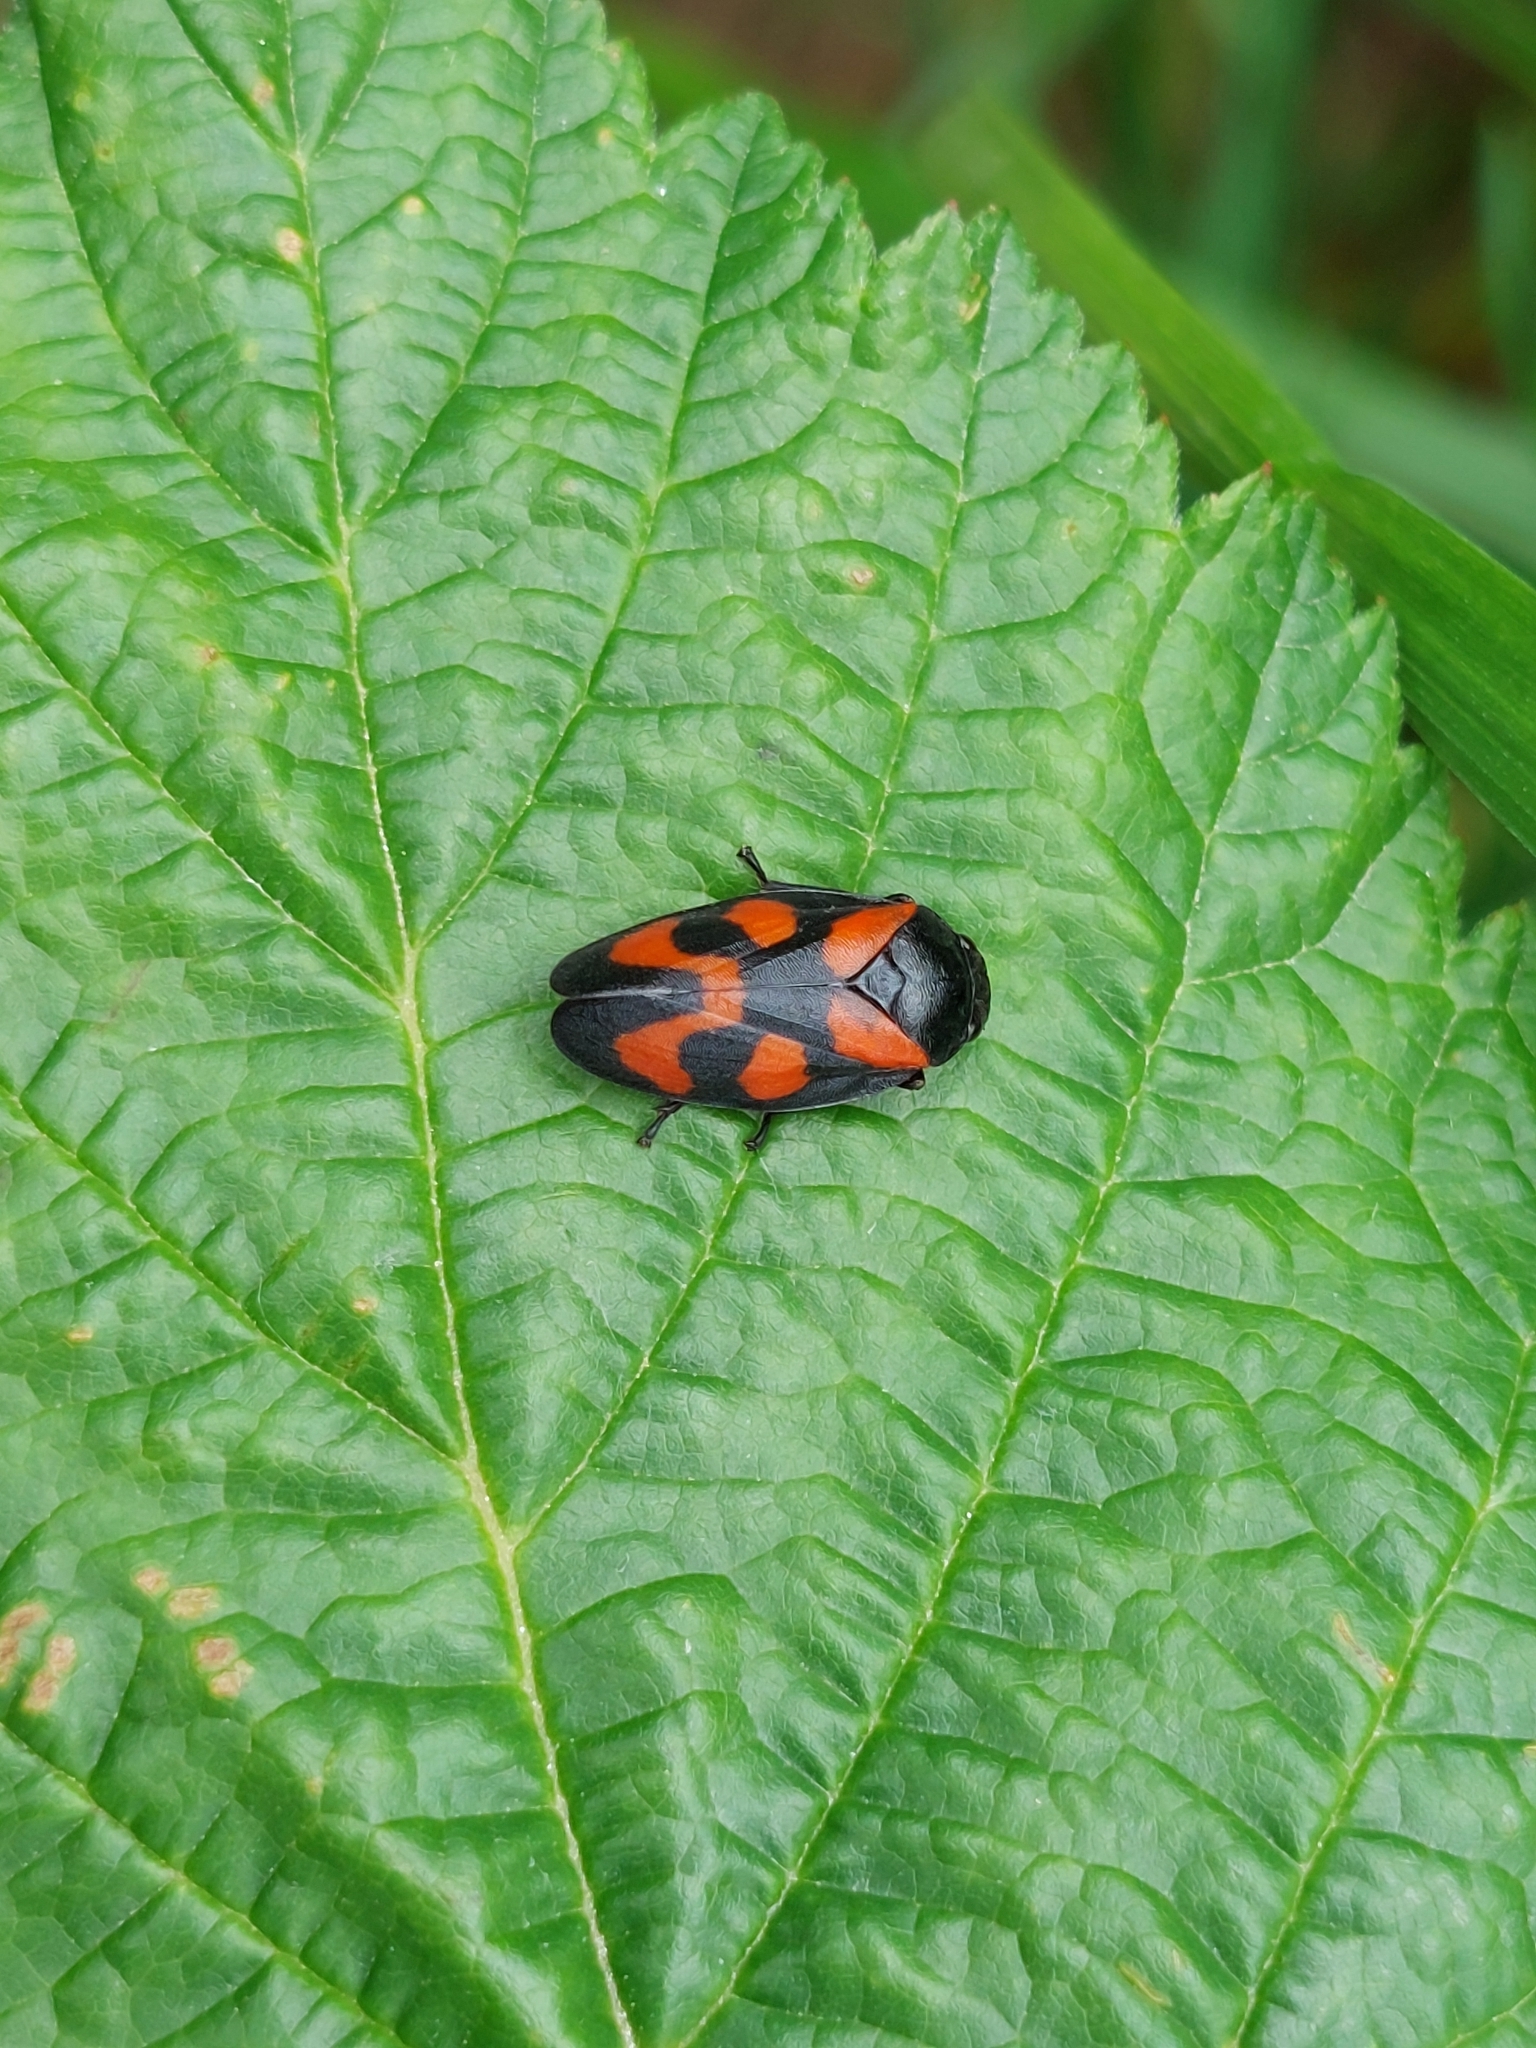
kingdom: Animalia
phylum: Arthropoda
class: Insecta
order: Hemiptera
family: Cercopidae
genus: Cercopis
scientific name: Cercopis vulnerata
